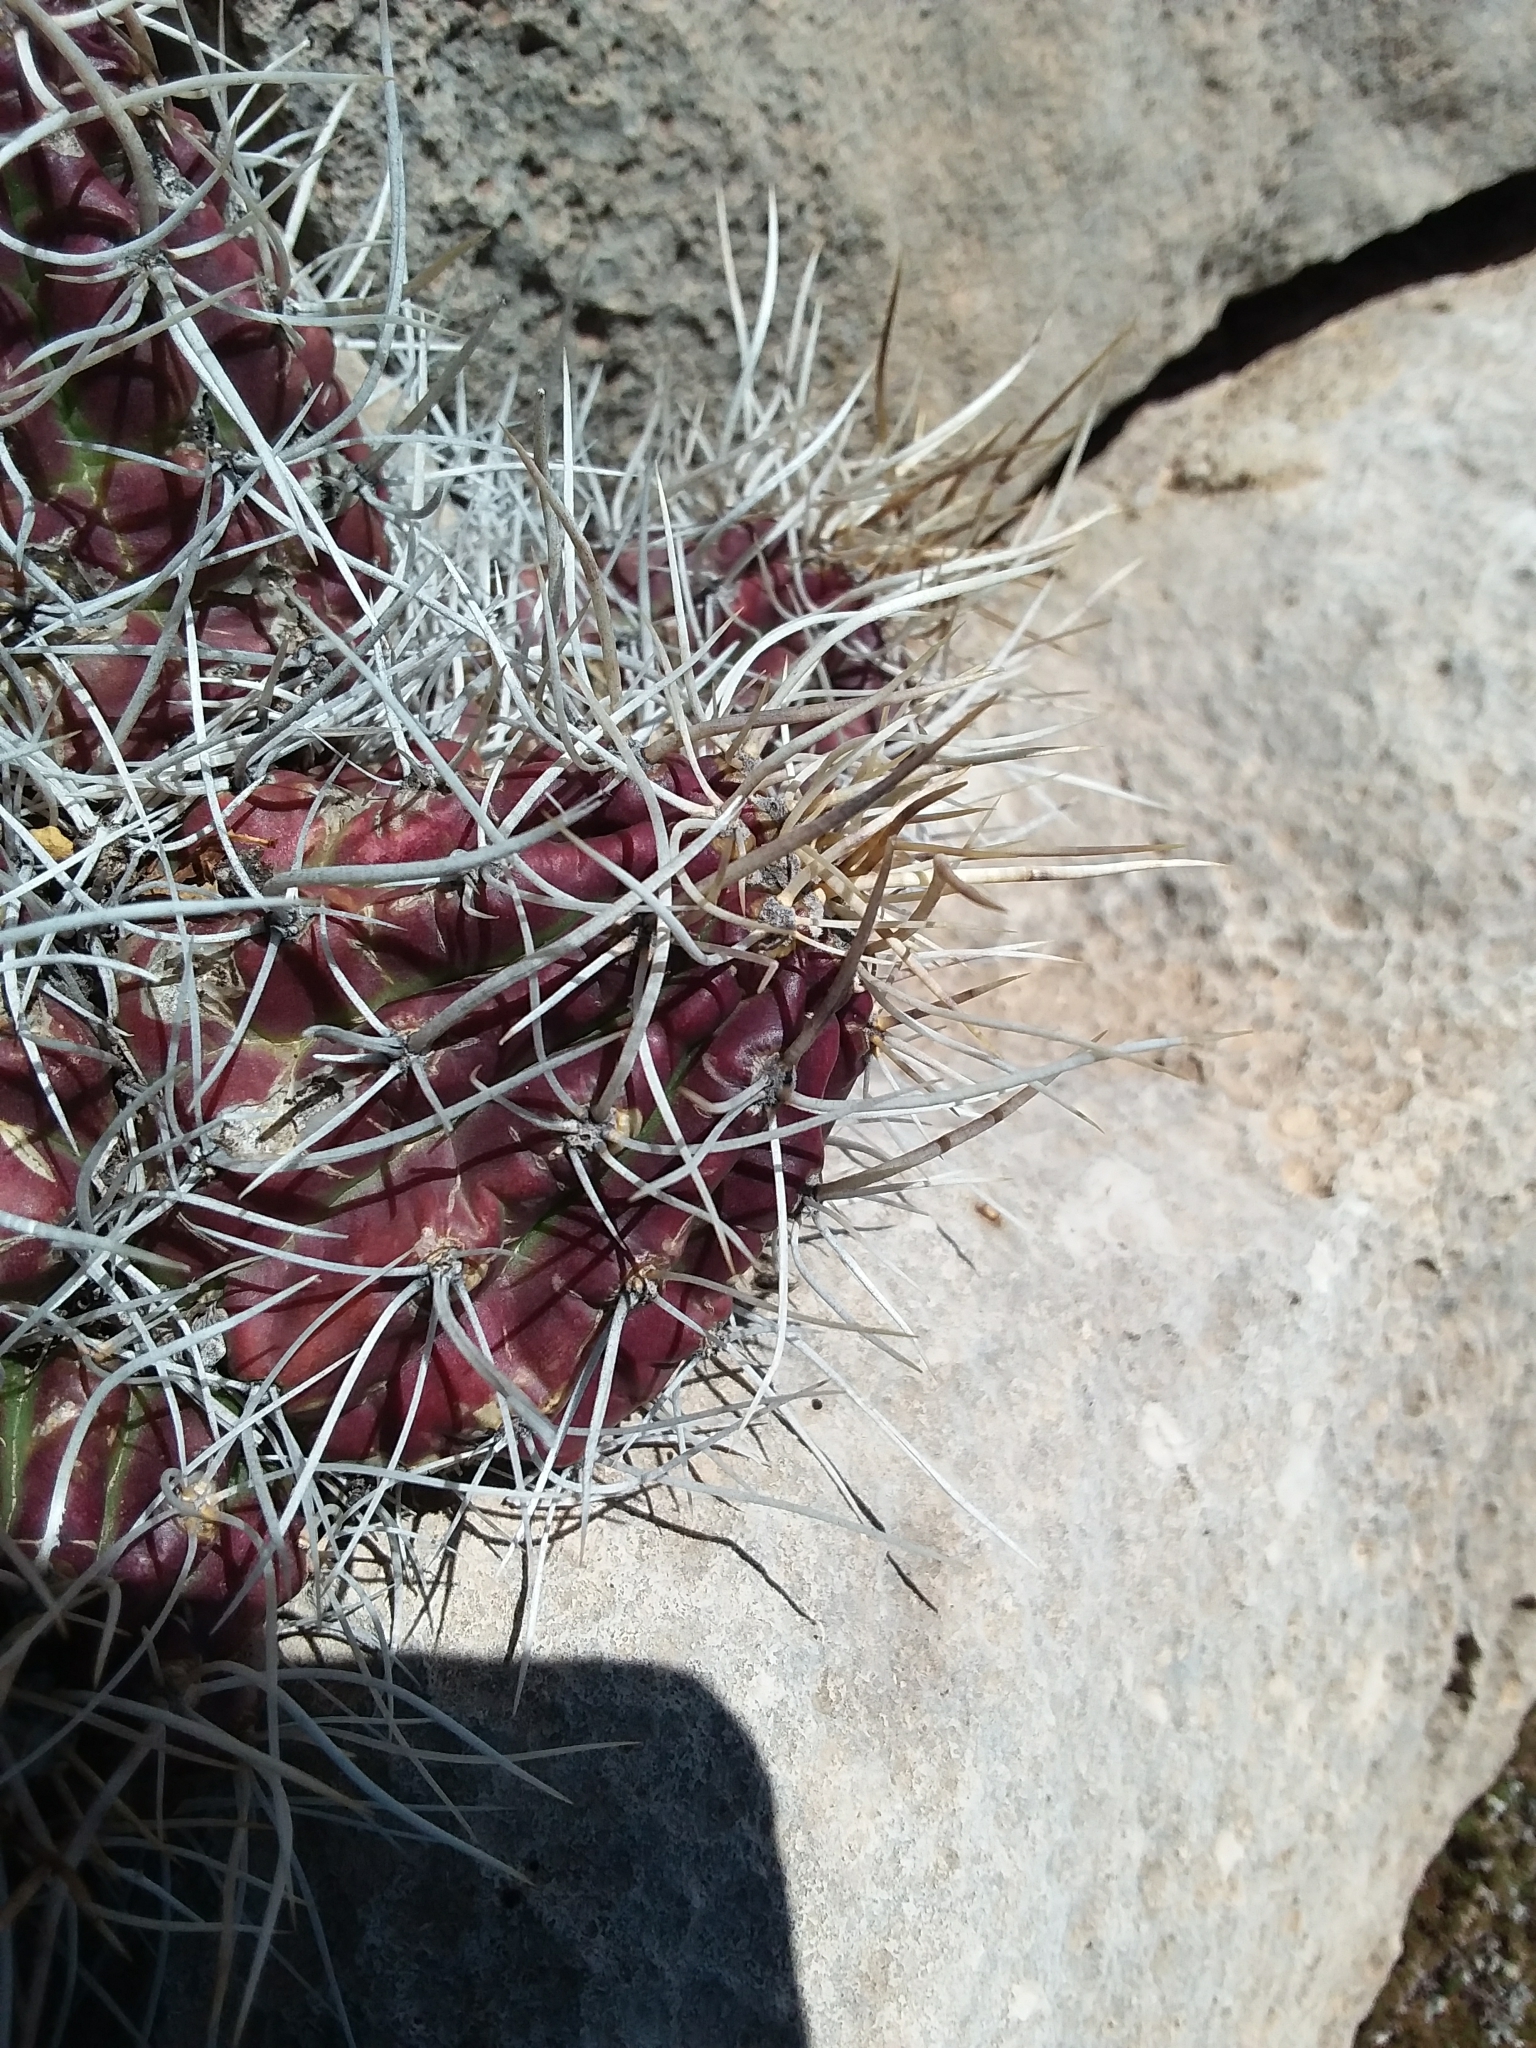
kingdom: Plantae
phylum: Tracheophyta
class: Magnoliopsida
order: Caryophyllales
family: Cactaceae
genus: Echinocereus
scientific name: Echinocereus coccineus
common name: Scarlet hedgehog cactus
